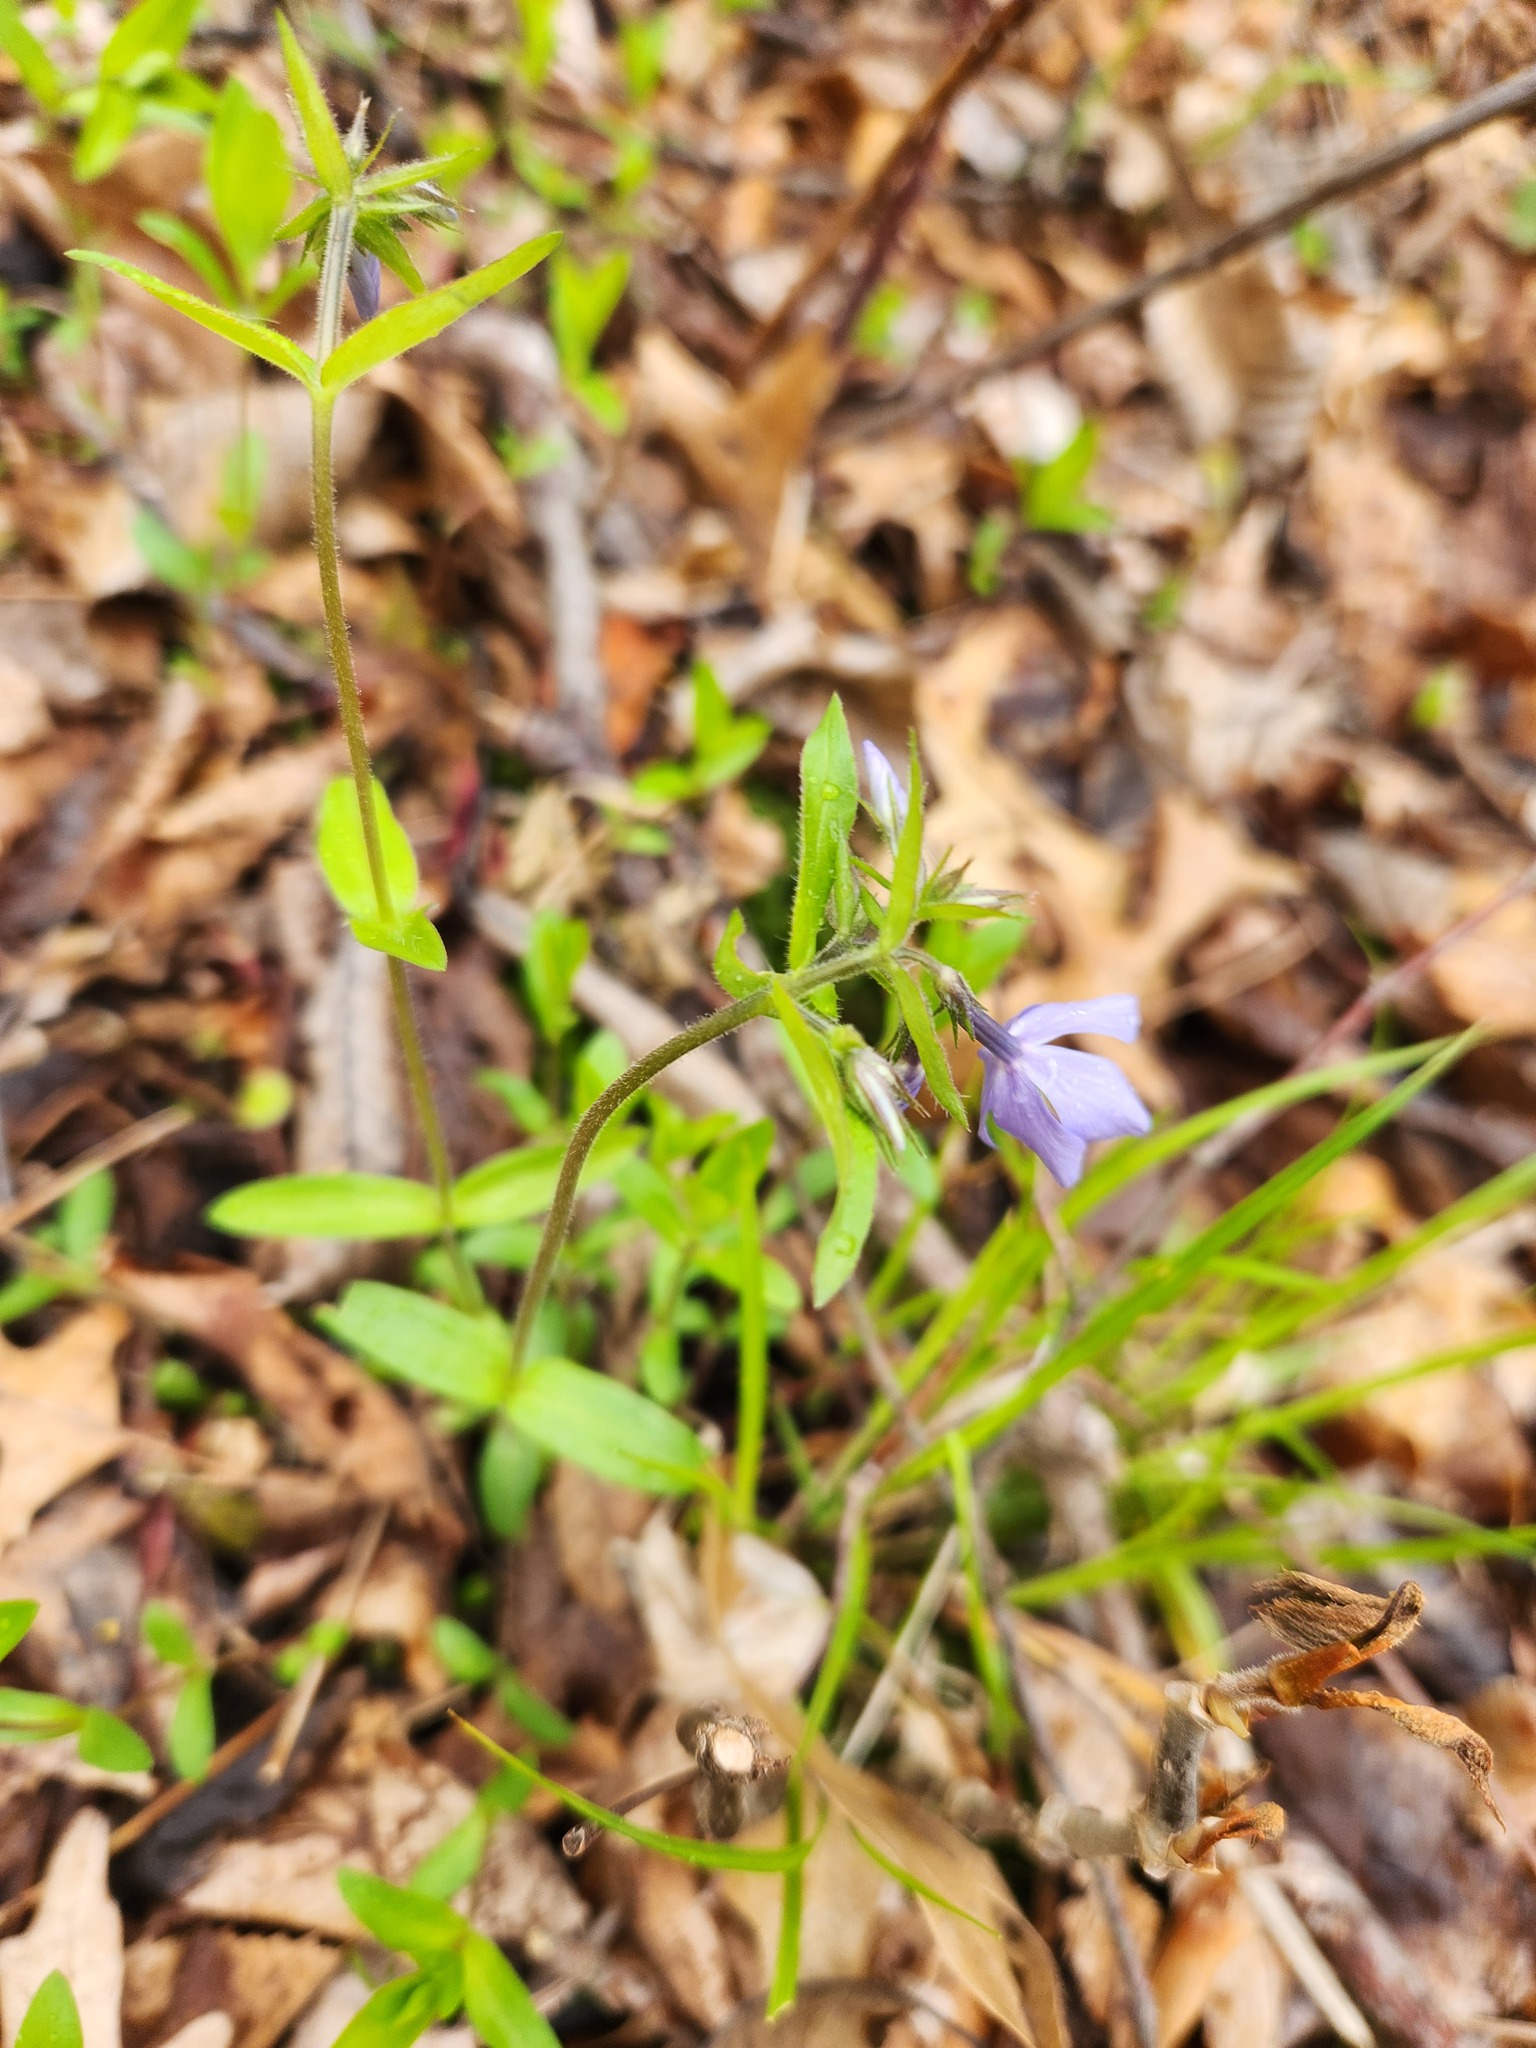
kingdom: Plantae
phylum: Tracheophyta
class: Magnoliopsida
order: Ericales
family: Polemoniaceae
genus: Phlox
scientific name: Phlox divaricata
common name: Blue phlox
